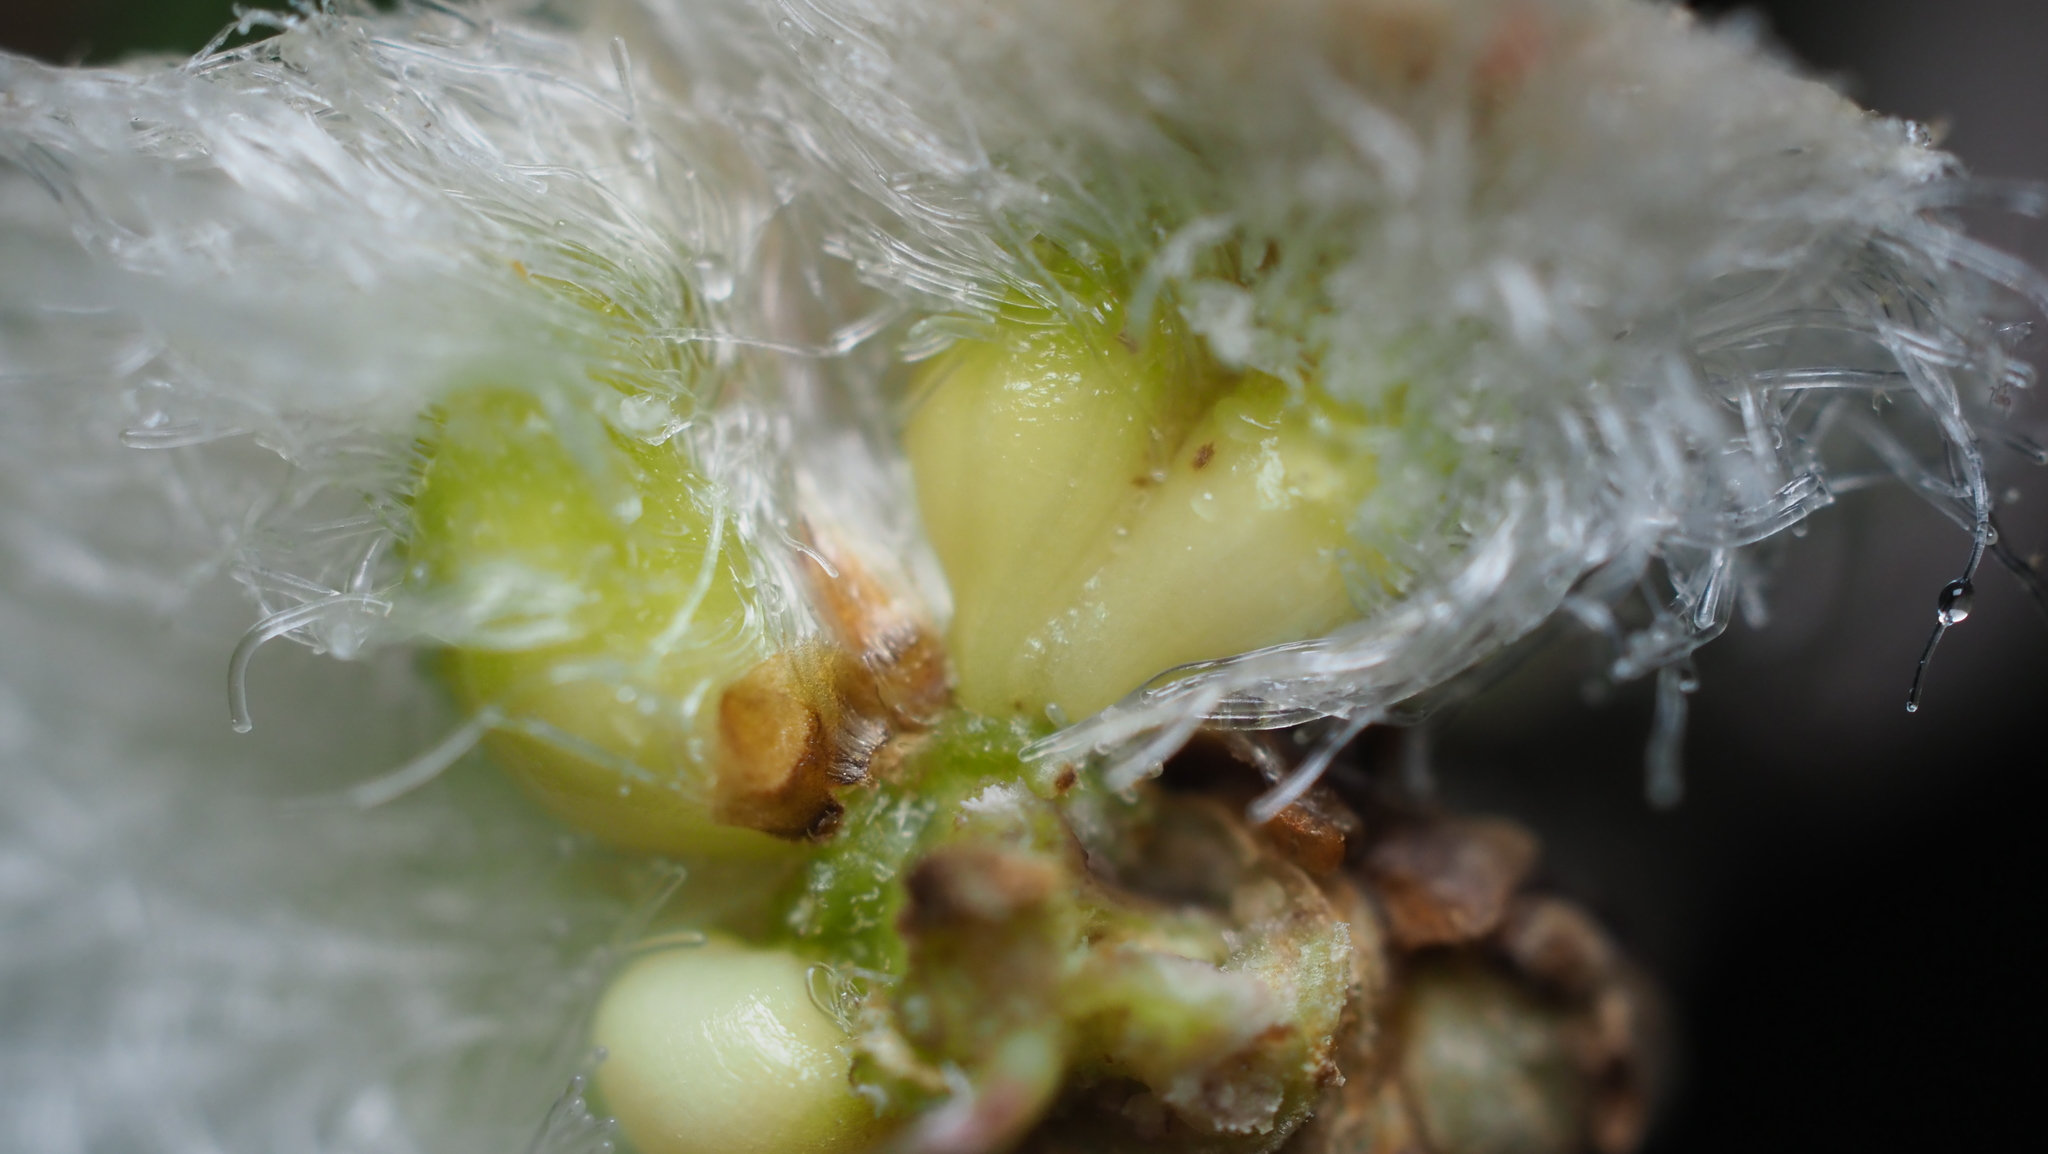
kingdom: Animalia
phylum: Arthropoda
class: Insecta
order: Hymenoptera
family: Cynipidae
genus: Callirhytis
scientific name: Callirhytis
